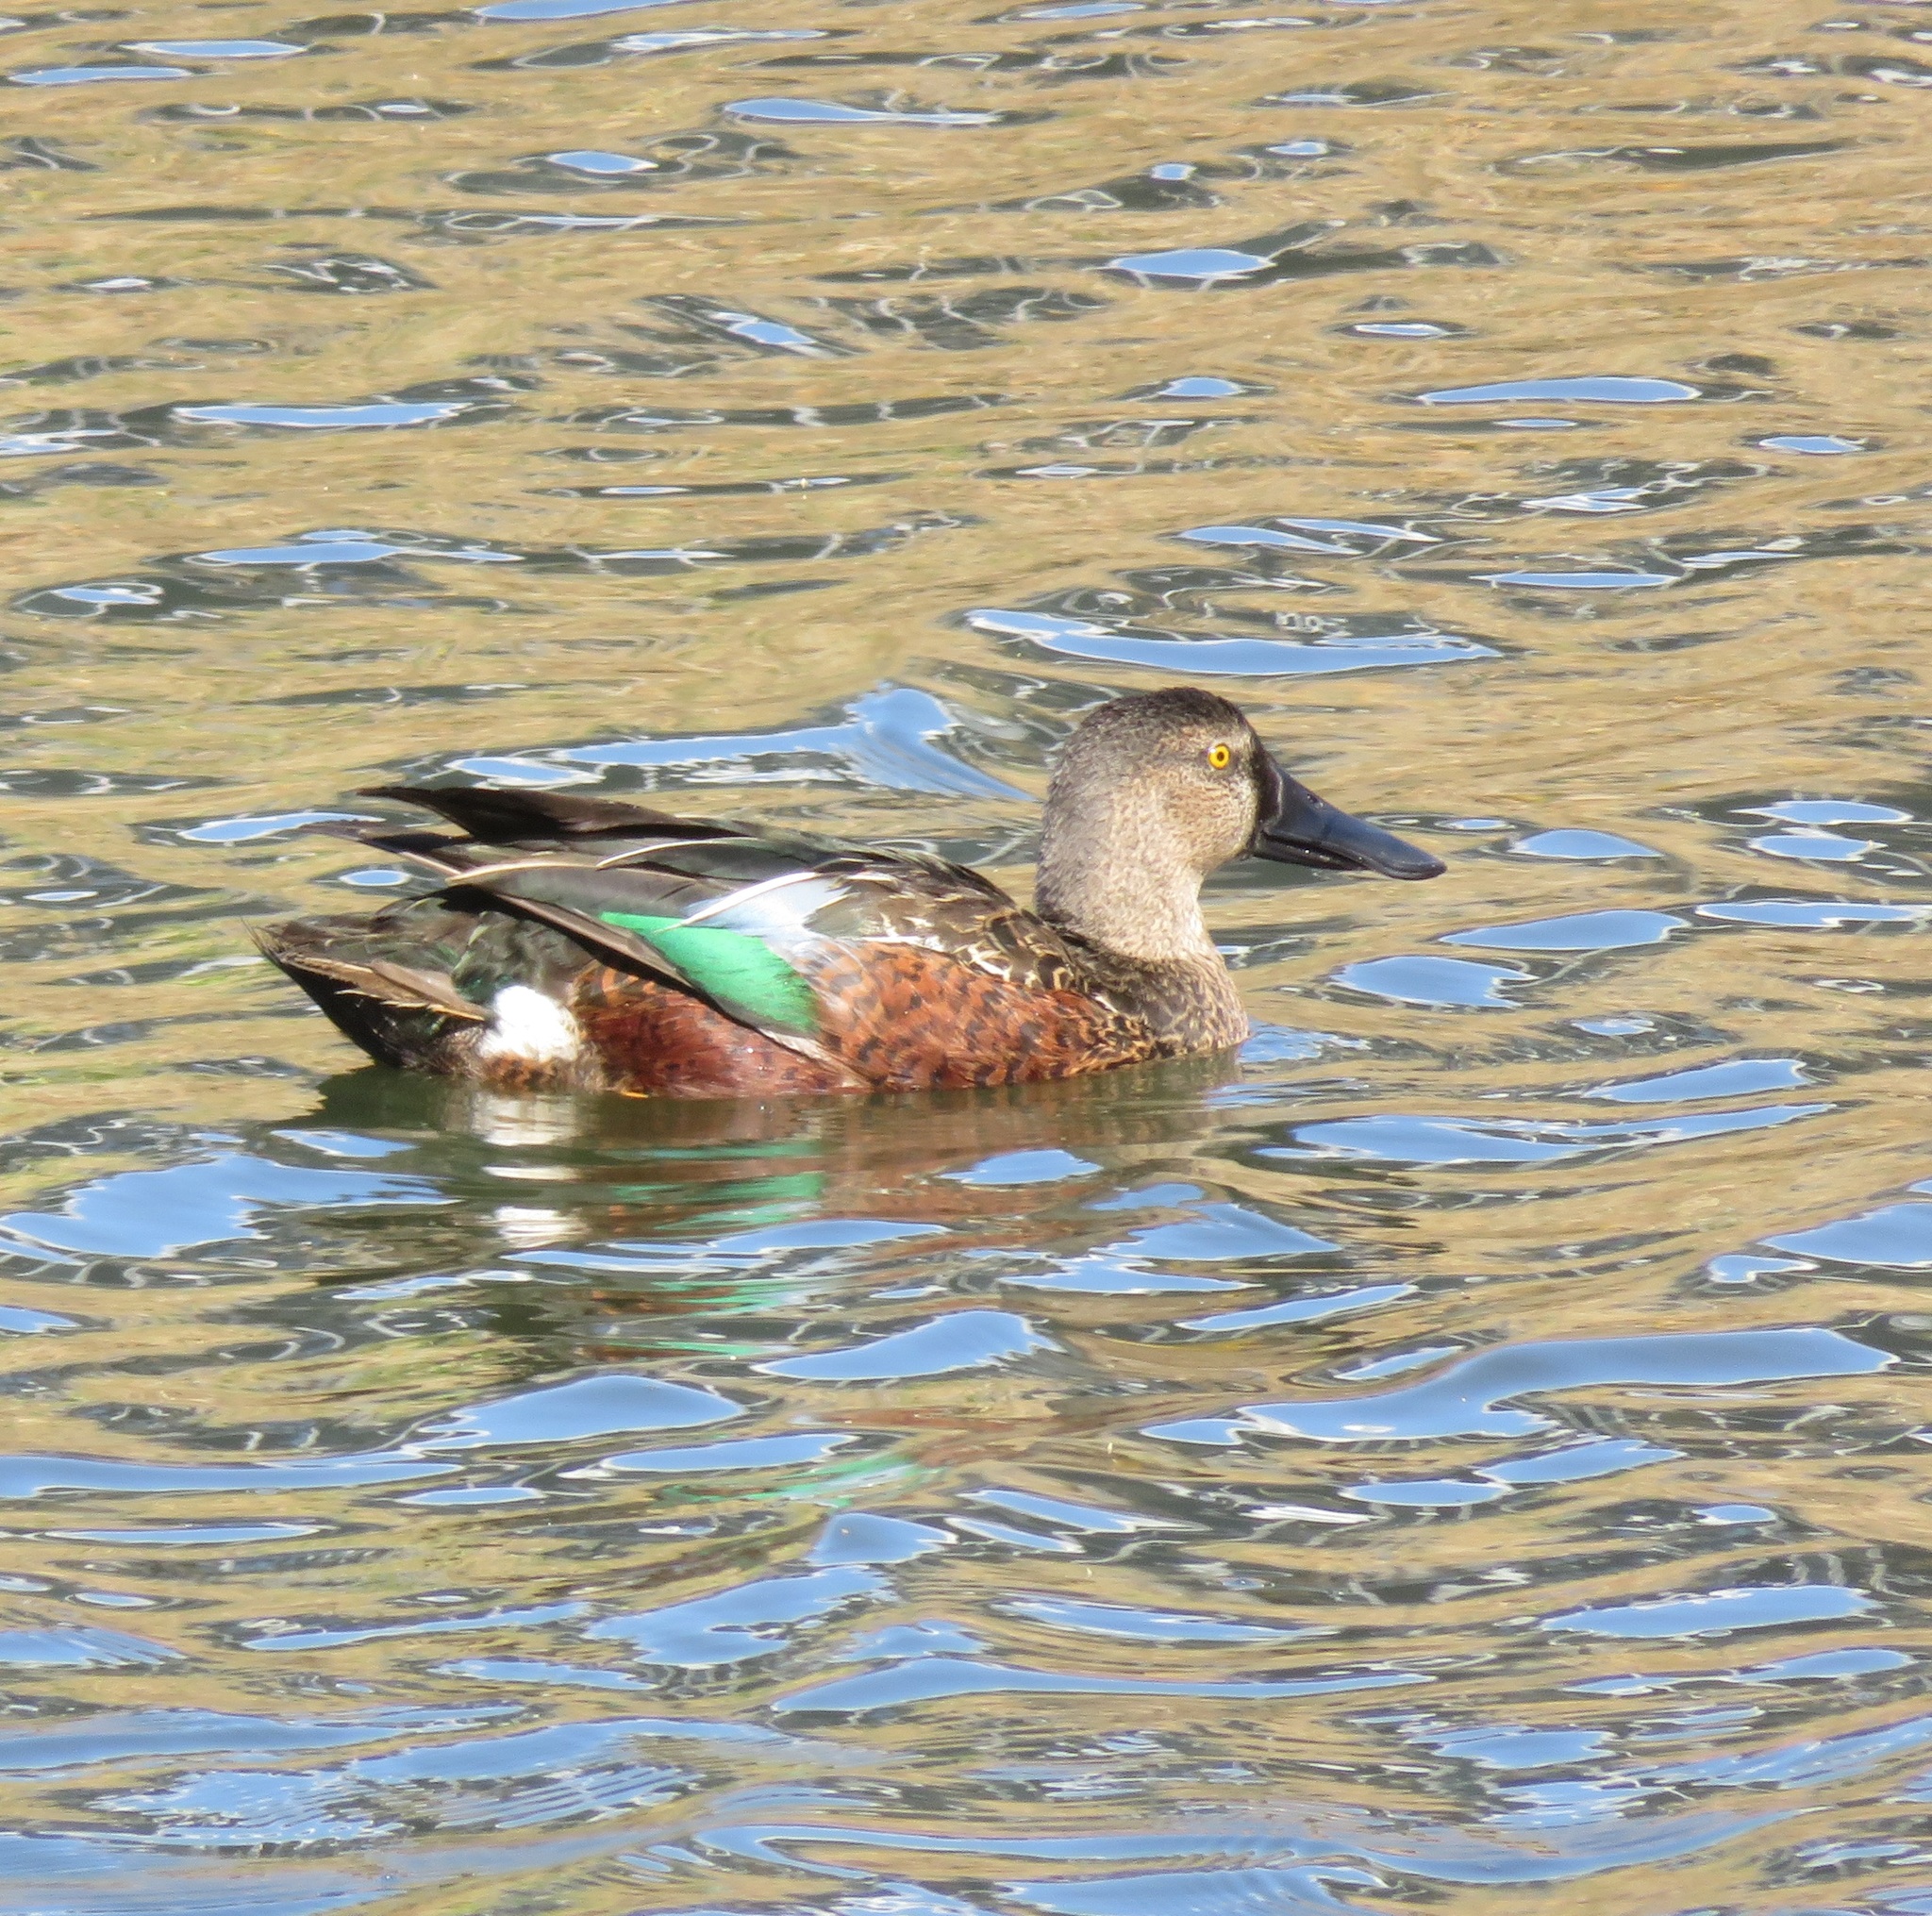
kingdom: Animalia
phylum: Chordata
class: Aves
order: Anseriformes
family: Anatidae
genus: Spatula
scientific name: Spatula rhynchotis
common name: Australian shoveler
